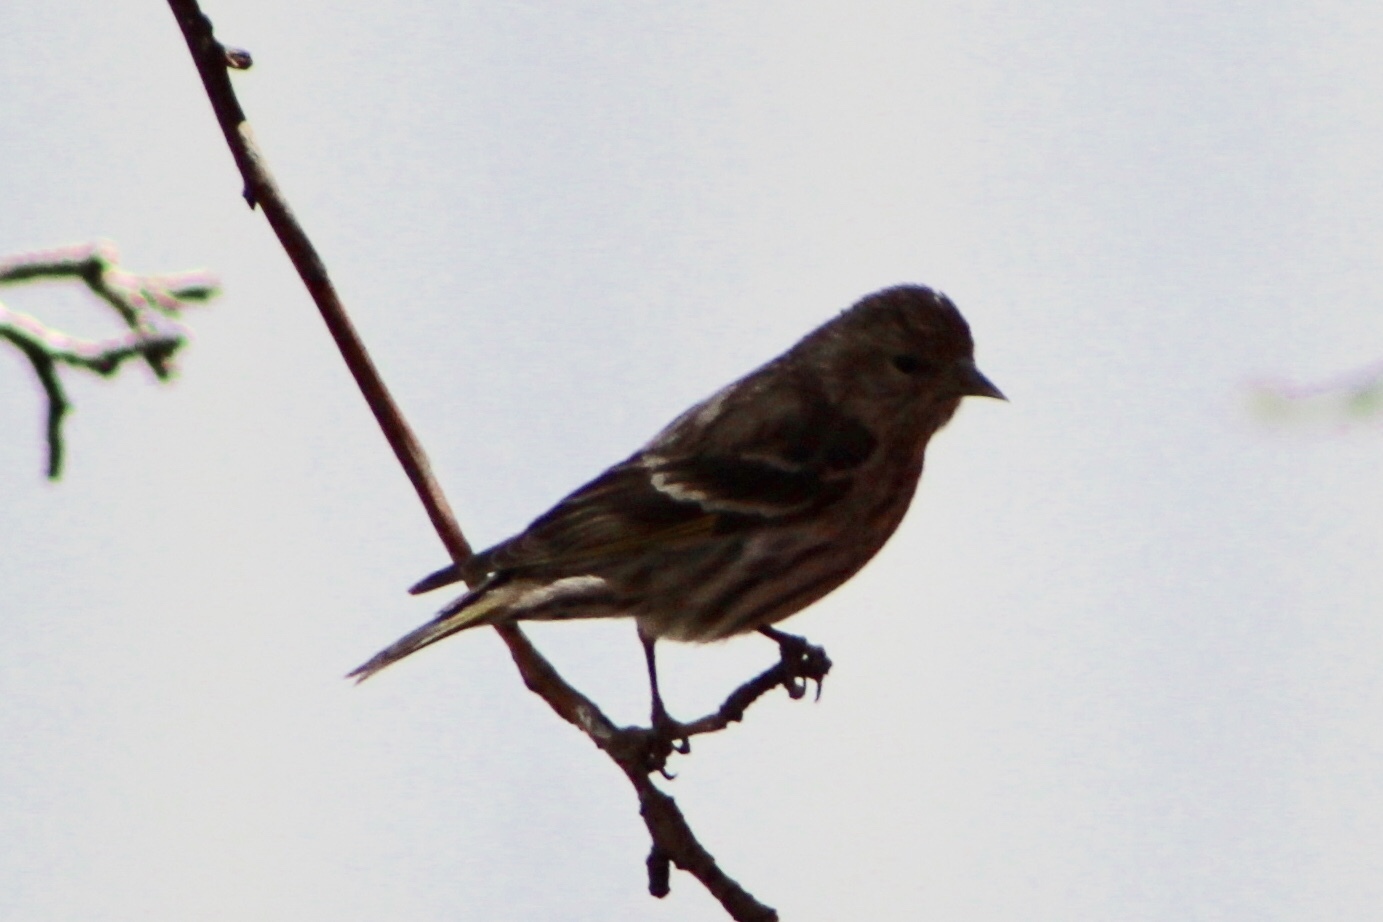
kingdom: Animalia
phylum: Chordata
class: Aves
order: Passeriformes
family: Fringillidae
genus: Spinus
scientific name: Spinus pinus
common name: Pine siskin
